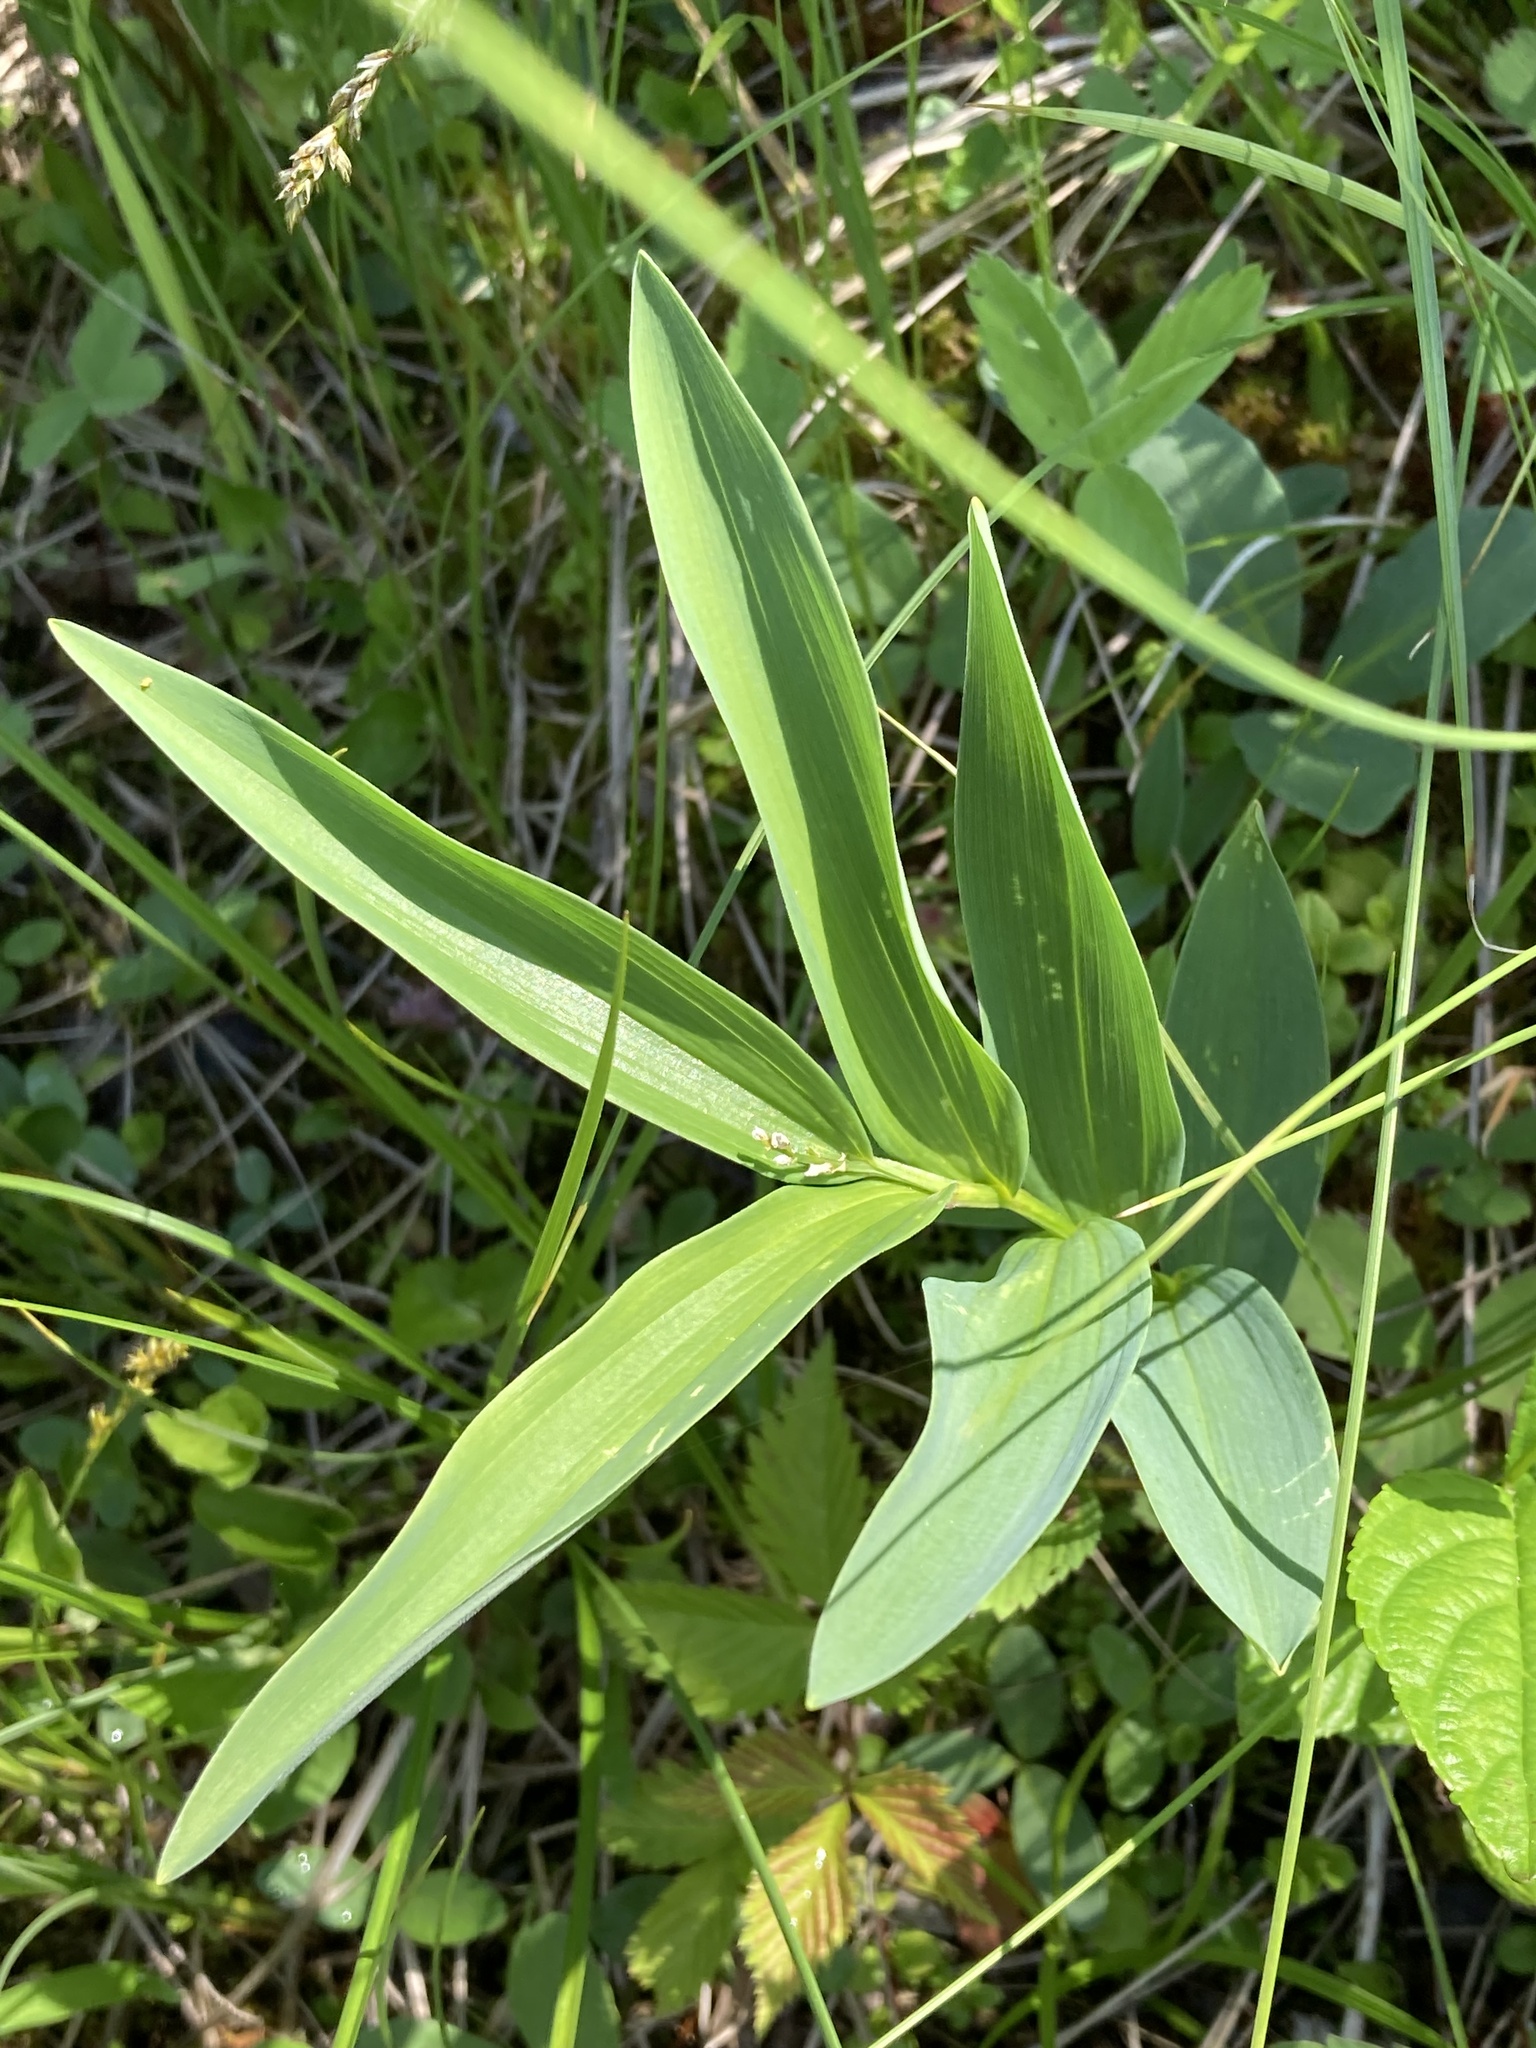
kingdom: Plantae
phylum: Tracheophyta
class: Liliopsida
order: Asparagales
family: Asparagaceae
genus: Maianthemum
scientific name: Maianthemum stellatum
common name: Little false solomon's seal
